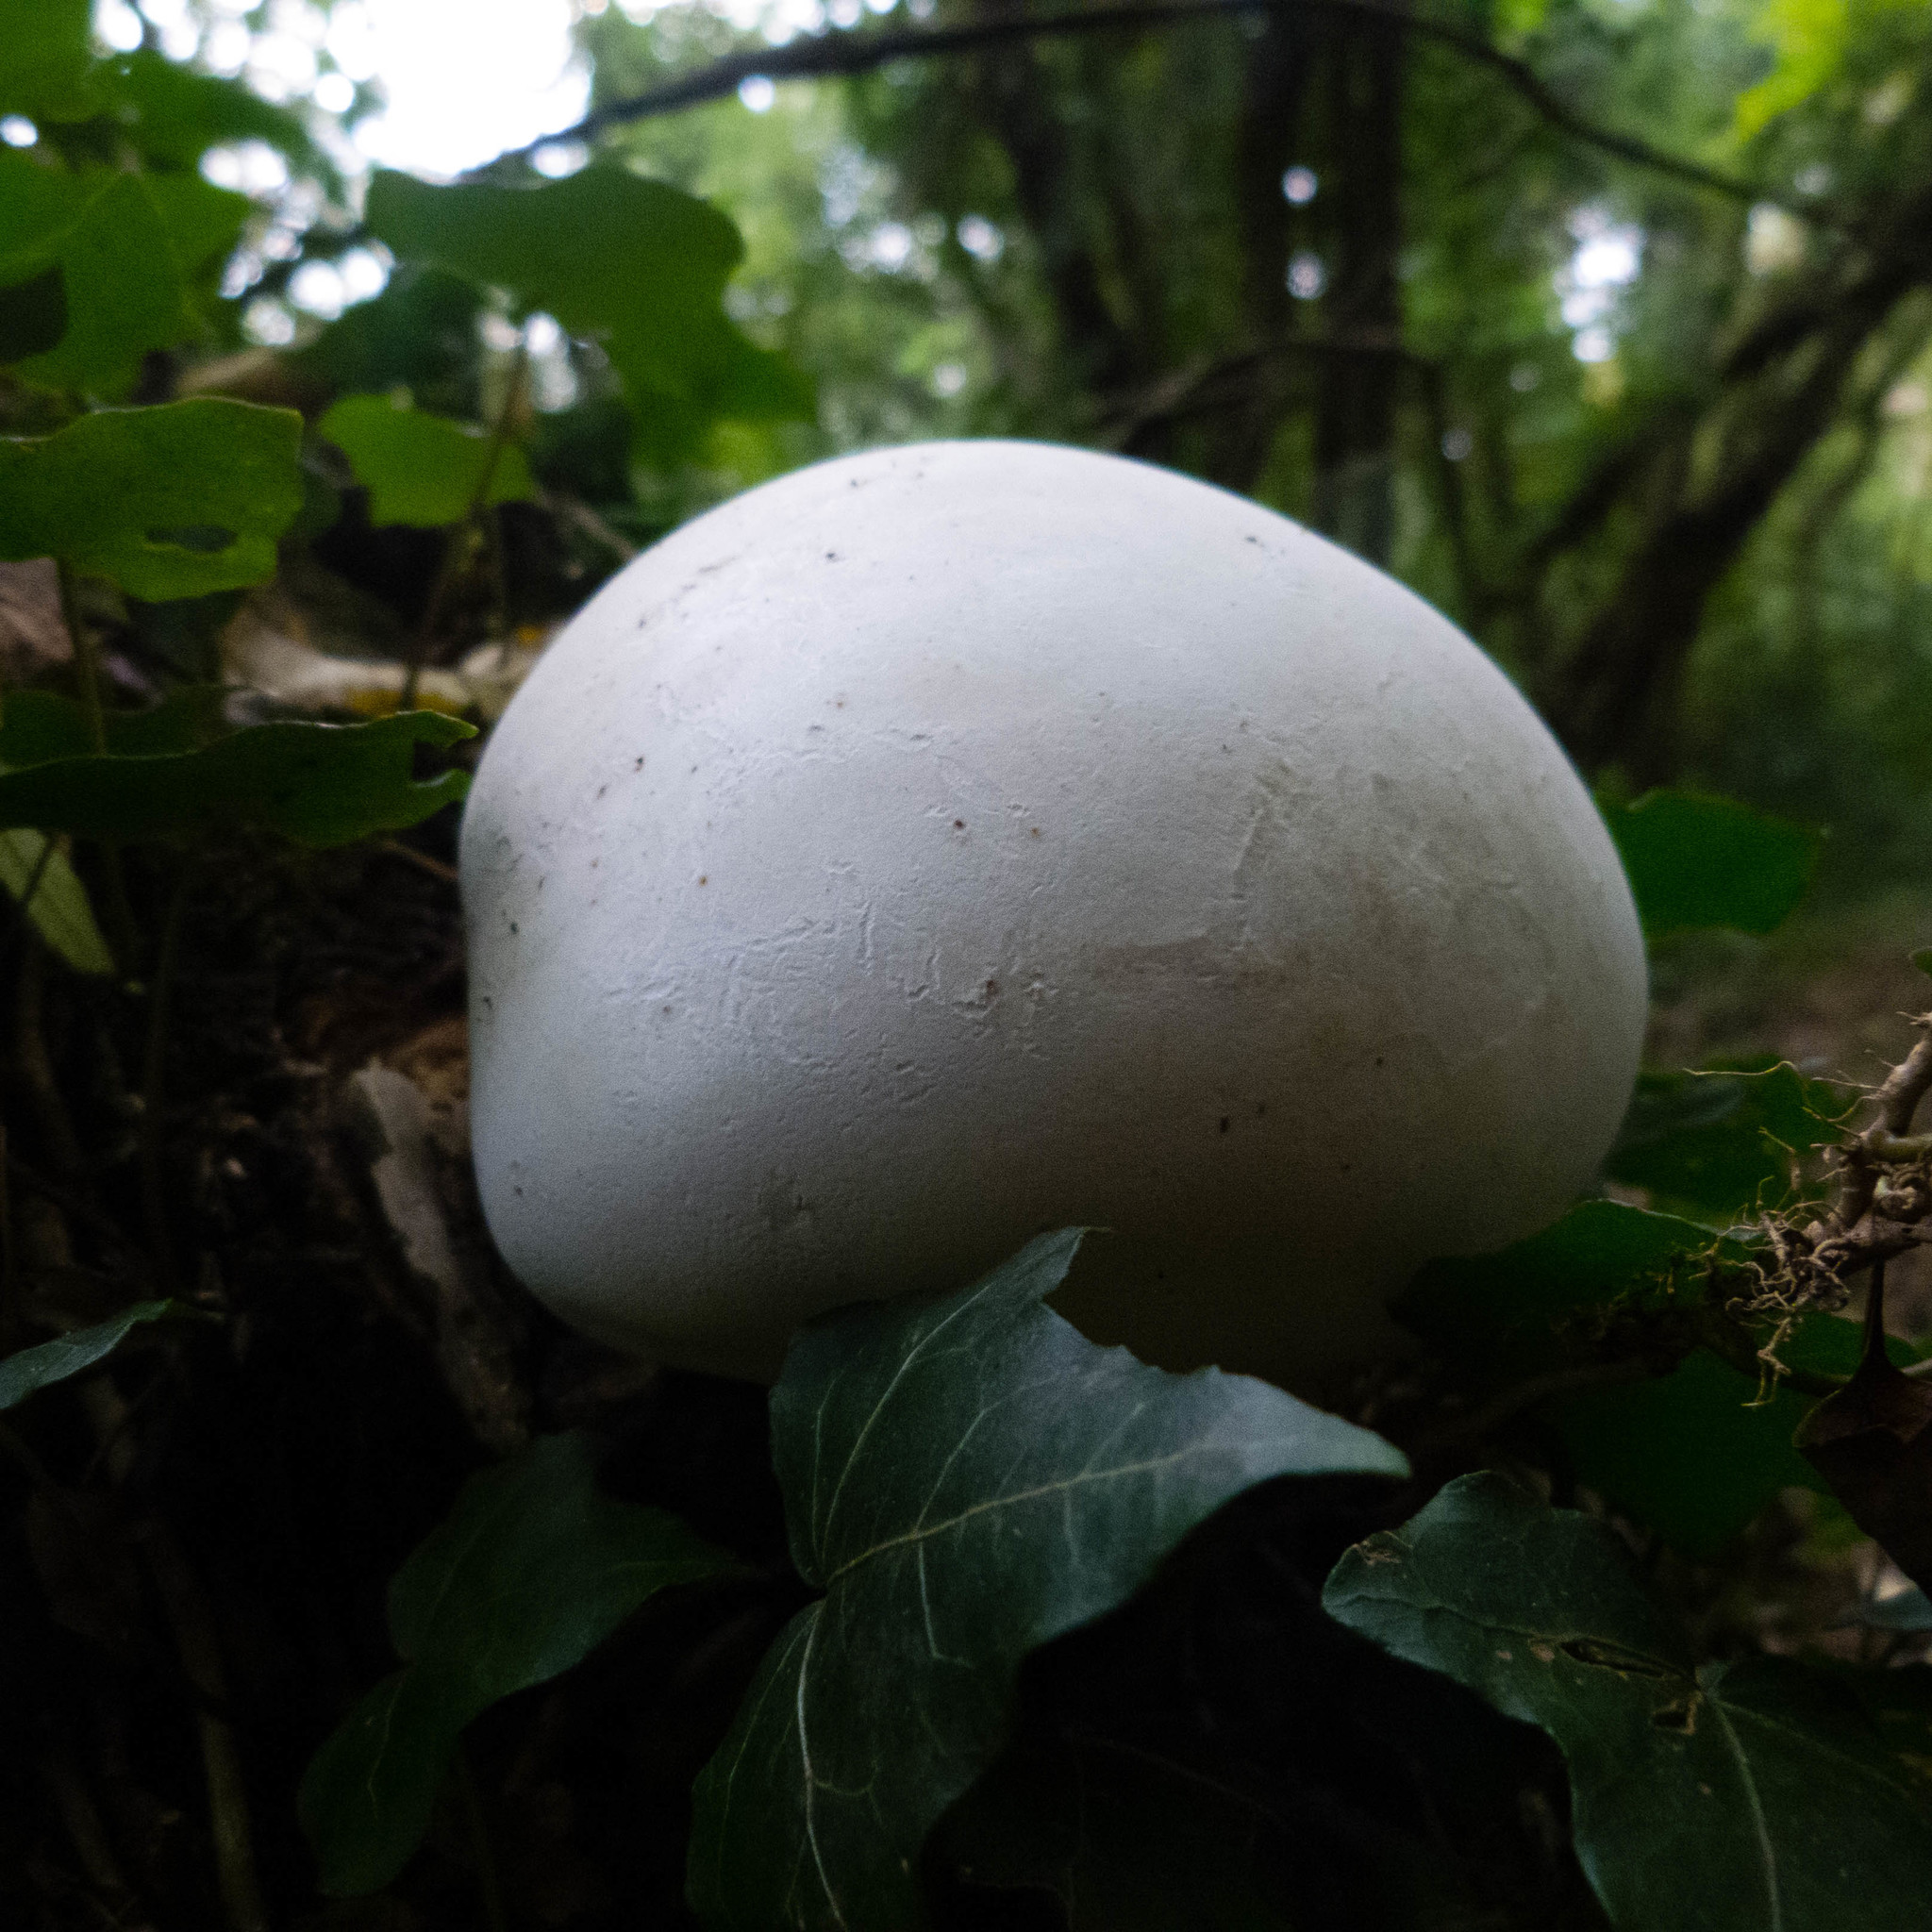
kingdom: Fungi
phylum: Basidiomycota
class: Agaricomycetes
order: Agaricales
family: Lycoperdaceae
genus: Calvatia
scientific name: Calvatia gigantea
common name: Giant puffball
